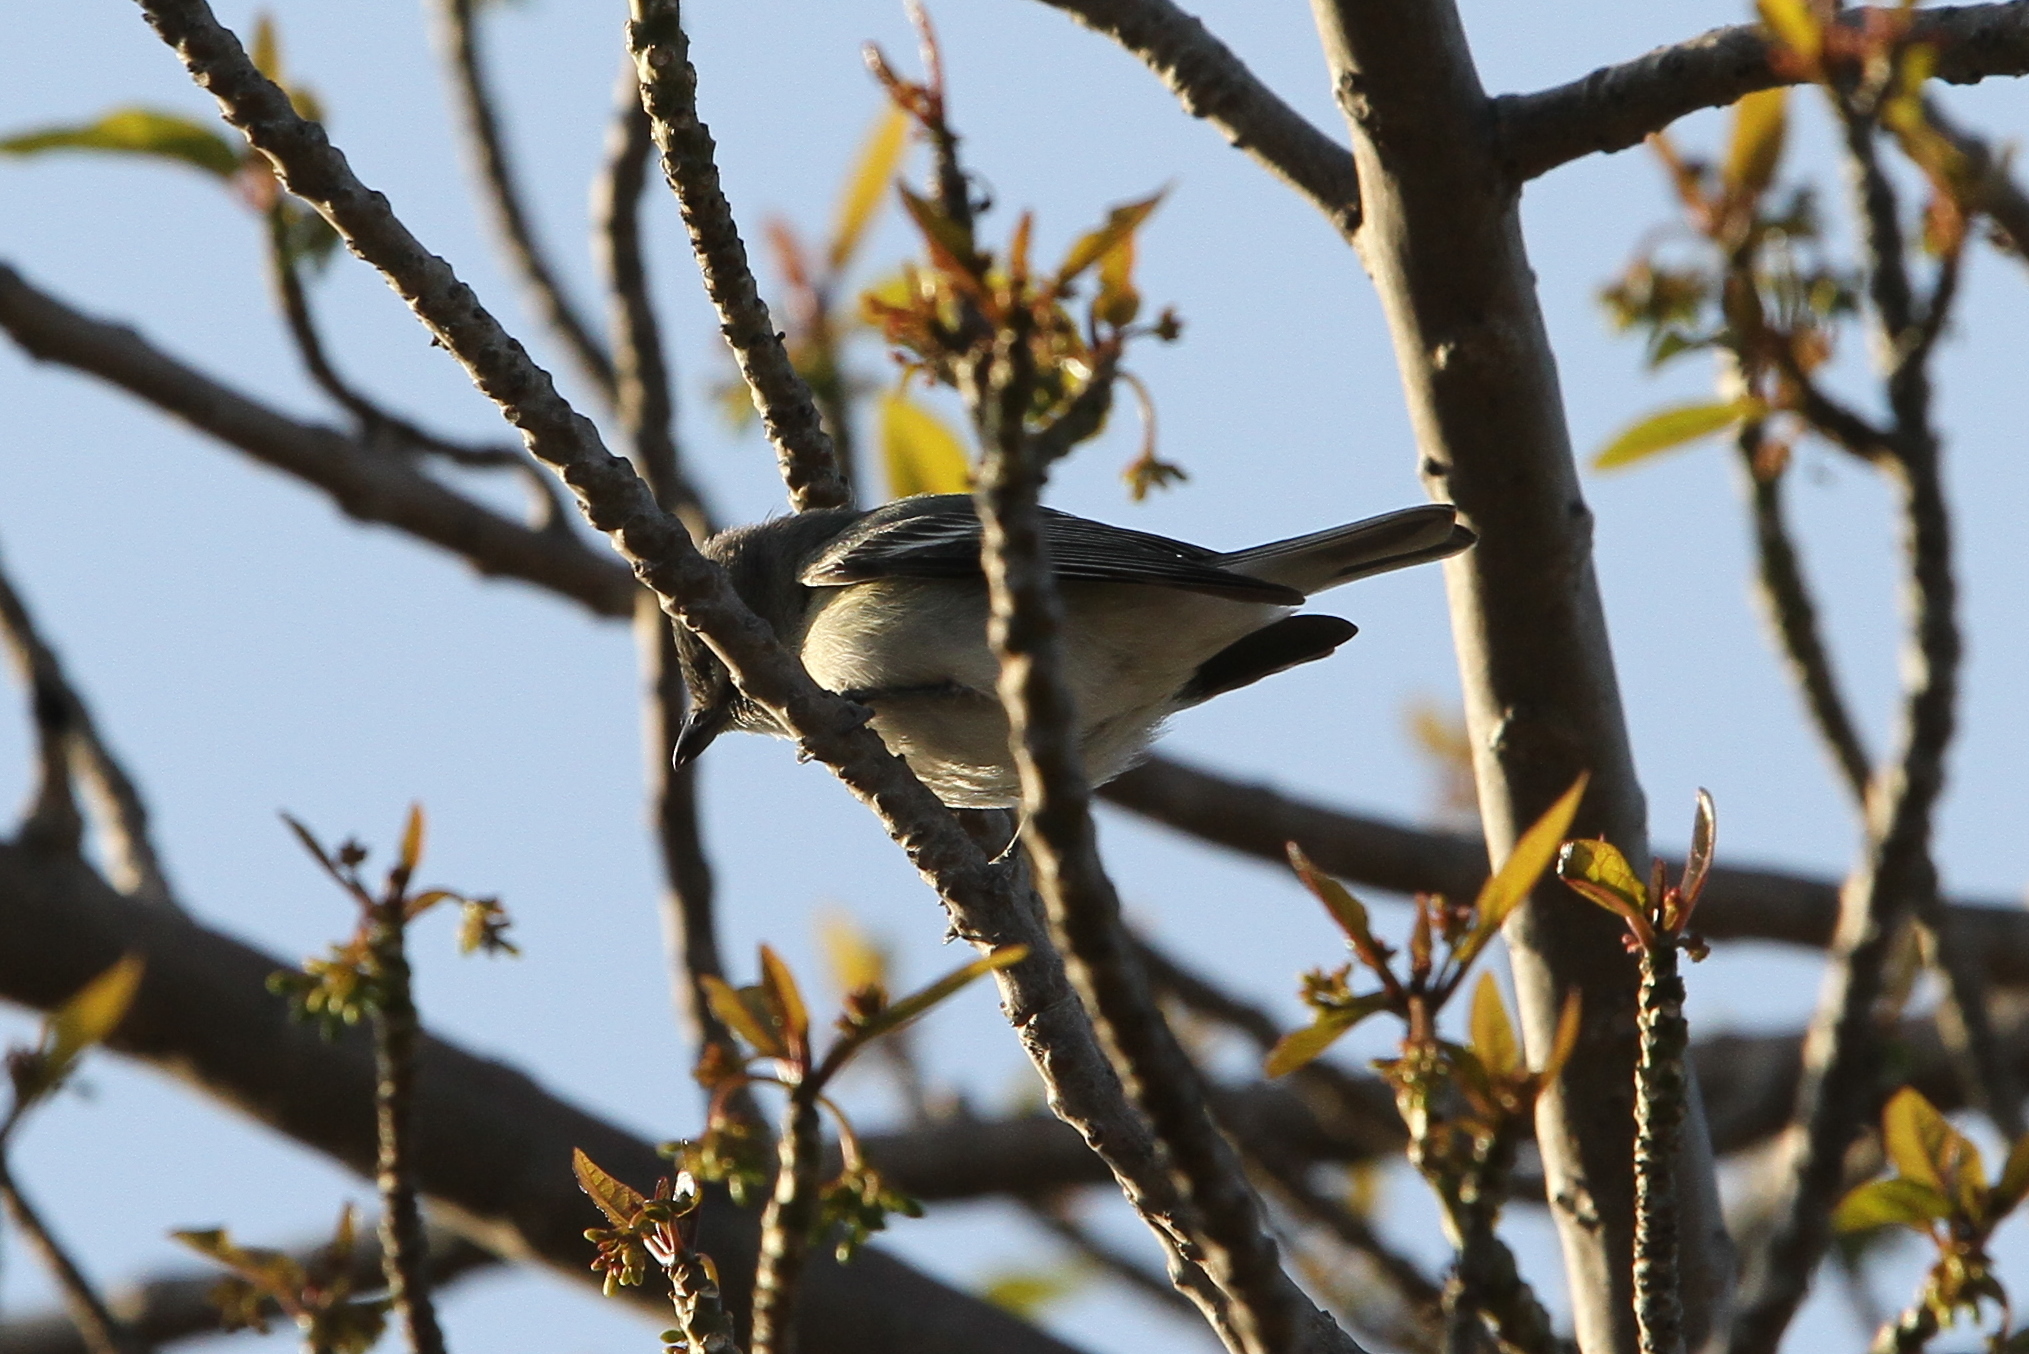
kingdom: Animalia
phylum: Chordata
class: Aves
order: Passeriformes
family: Vireonidae
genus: Vireo
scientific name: Vireo plumbeus
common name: Plumbeous vireo
